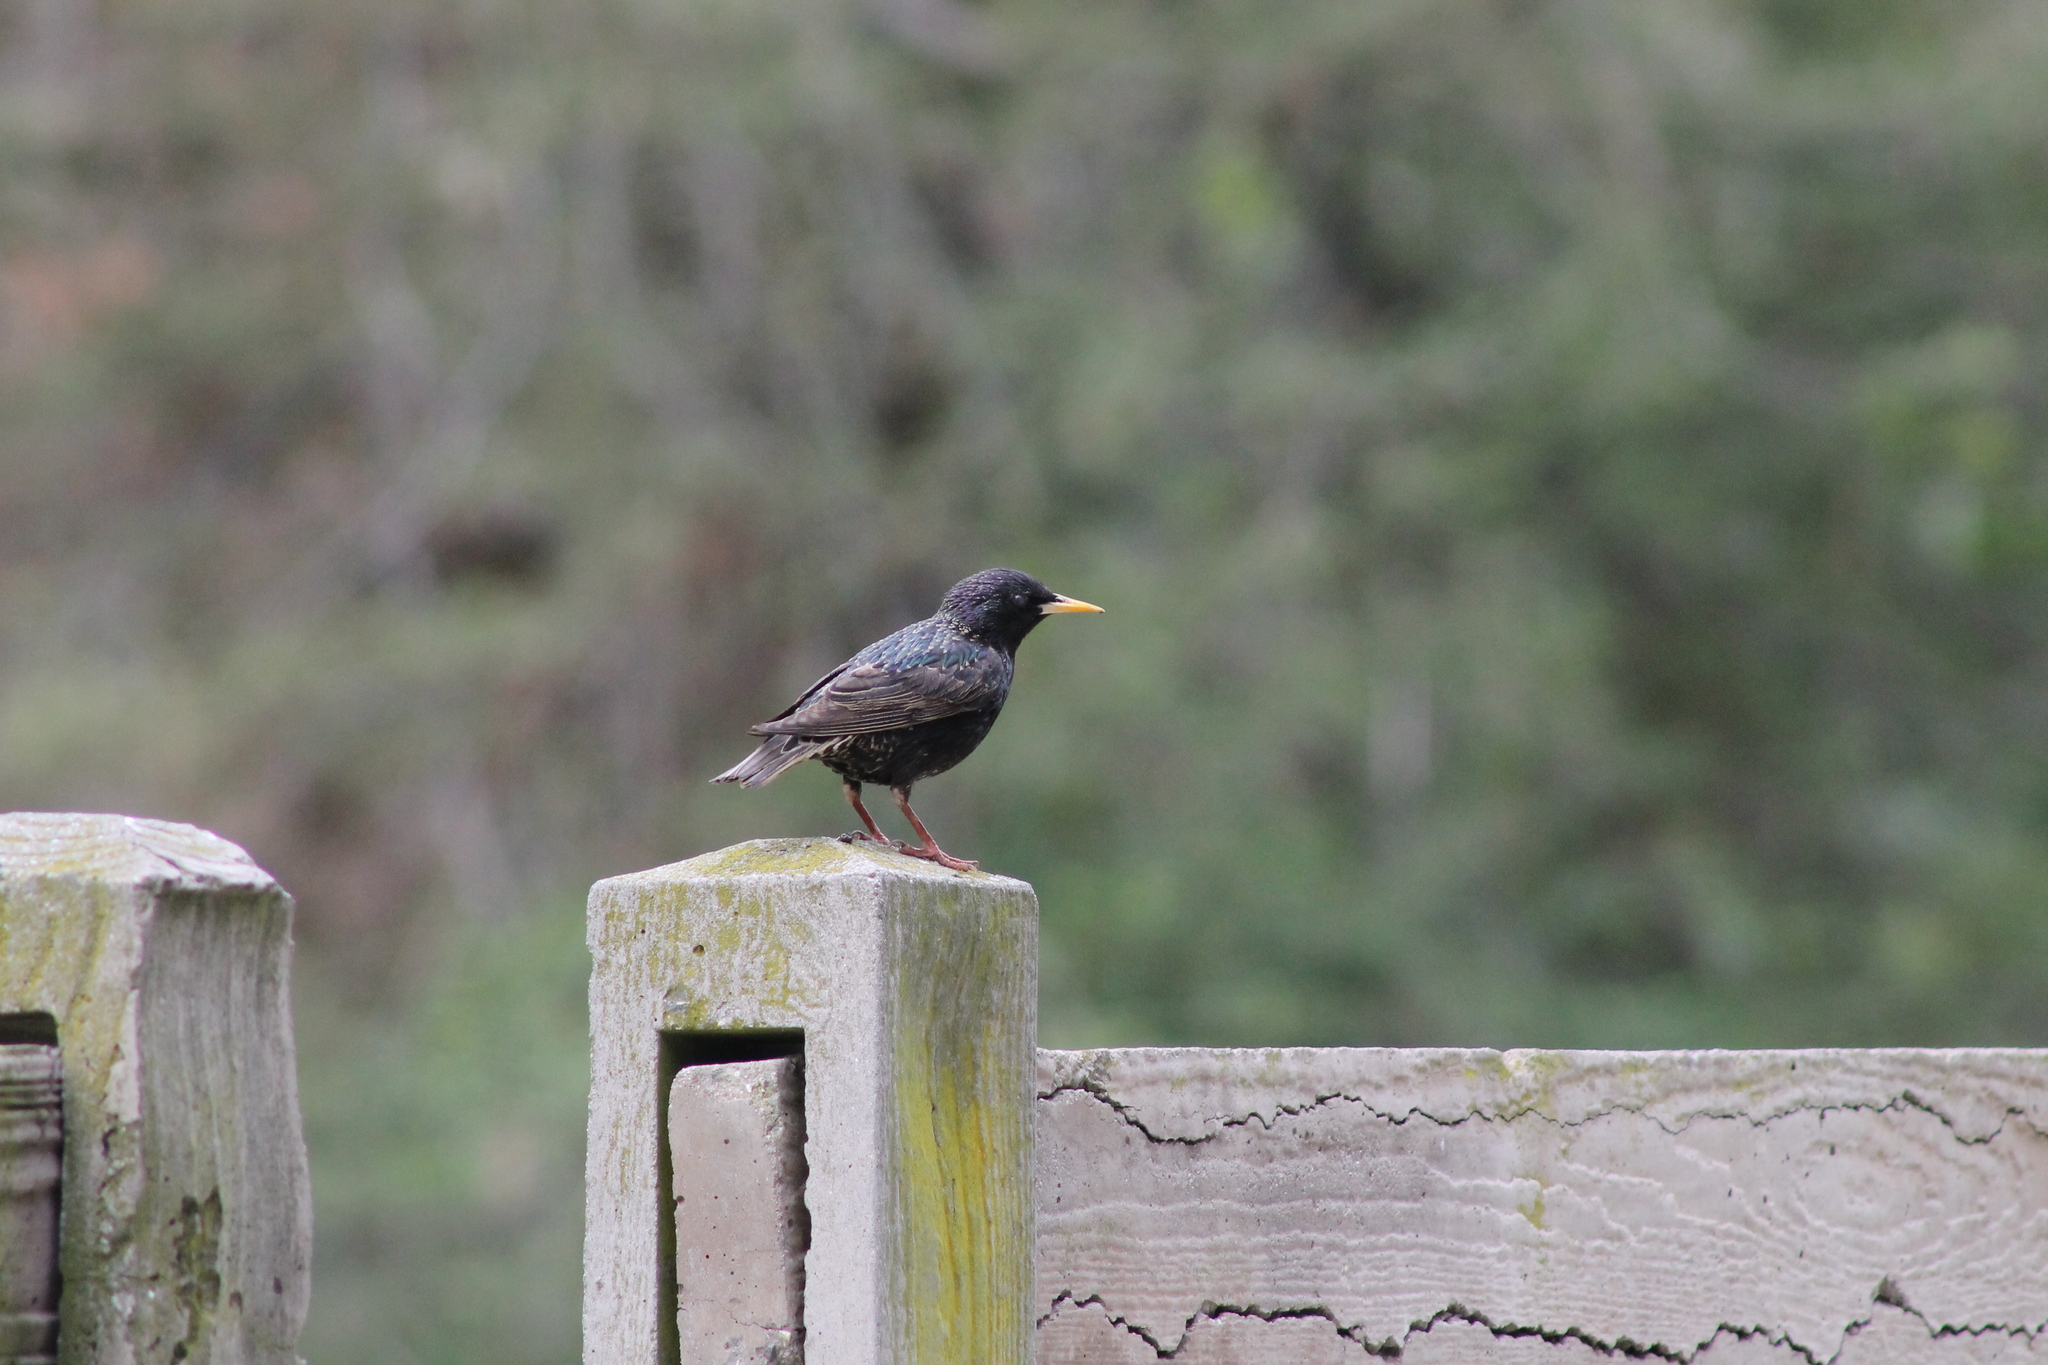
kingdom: Animalia
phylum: Chordata
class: Aves
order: Passeriformes
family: Sturnidae
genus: Sturnus
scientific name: Sturnus vulgaris
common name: Common starling
